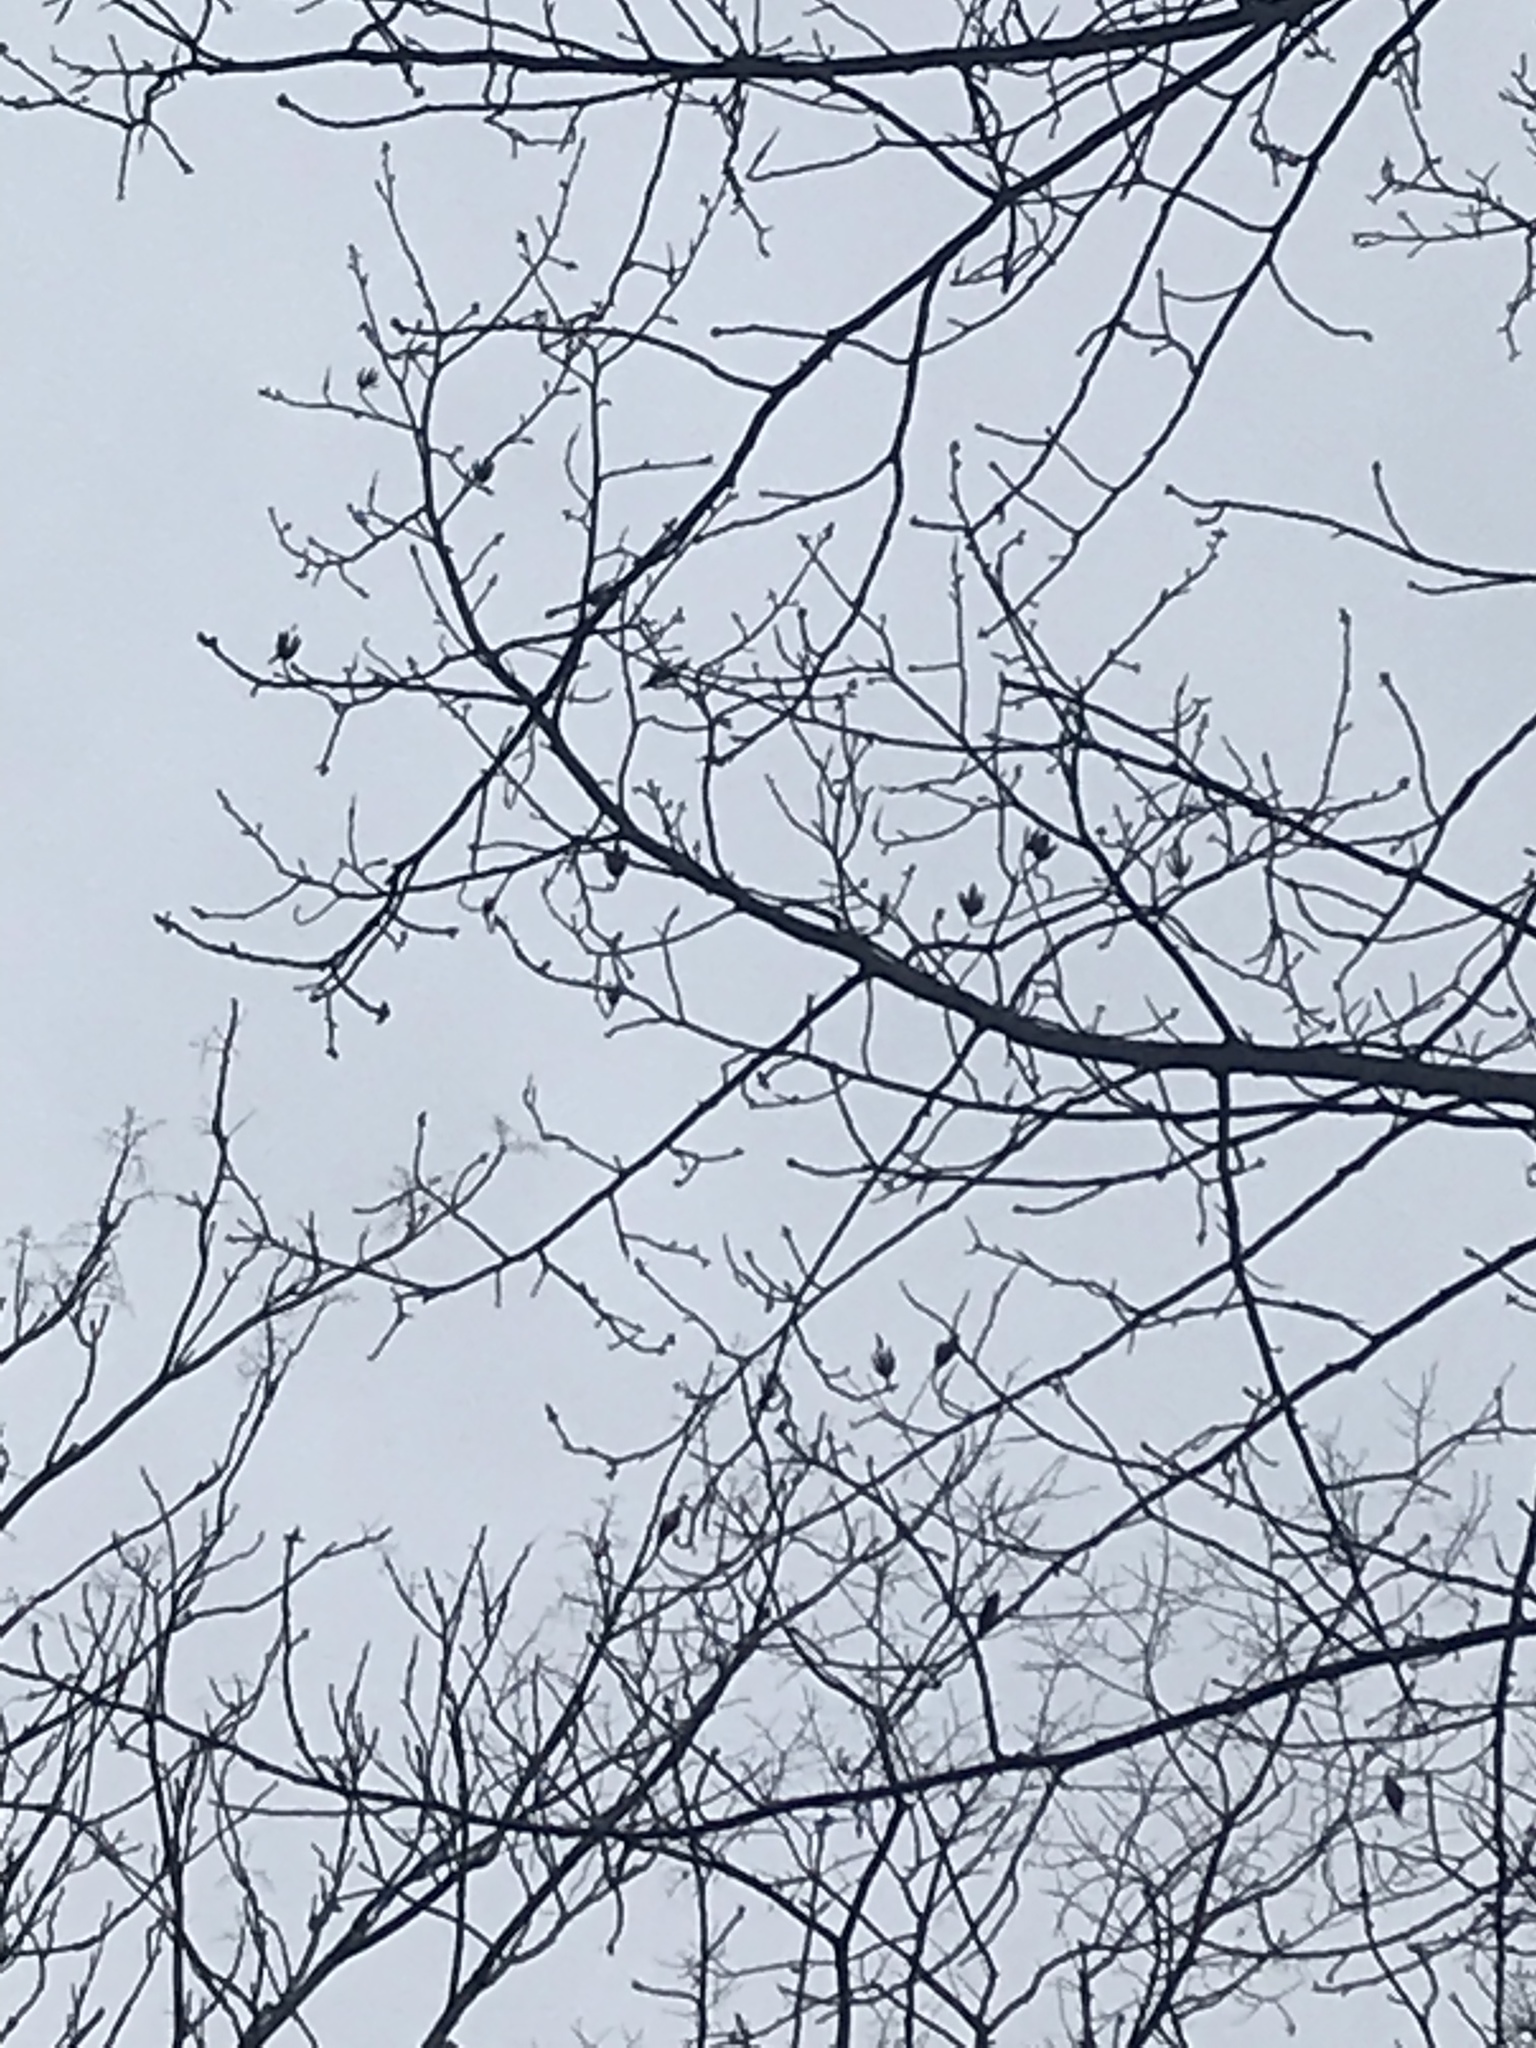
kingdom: Plantae
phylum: Tracheophyta
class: Magnoliopsida
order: Magnoliales
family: Magnoliaceae
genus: Liriodendron
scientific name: Liriodendron tulipifera
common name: Tulip tree
